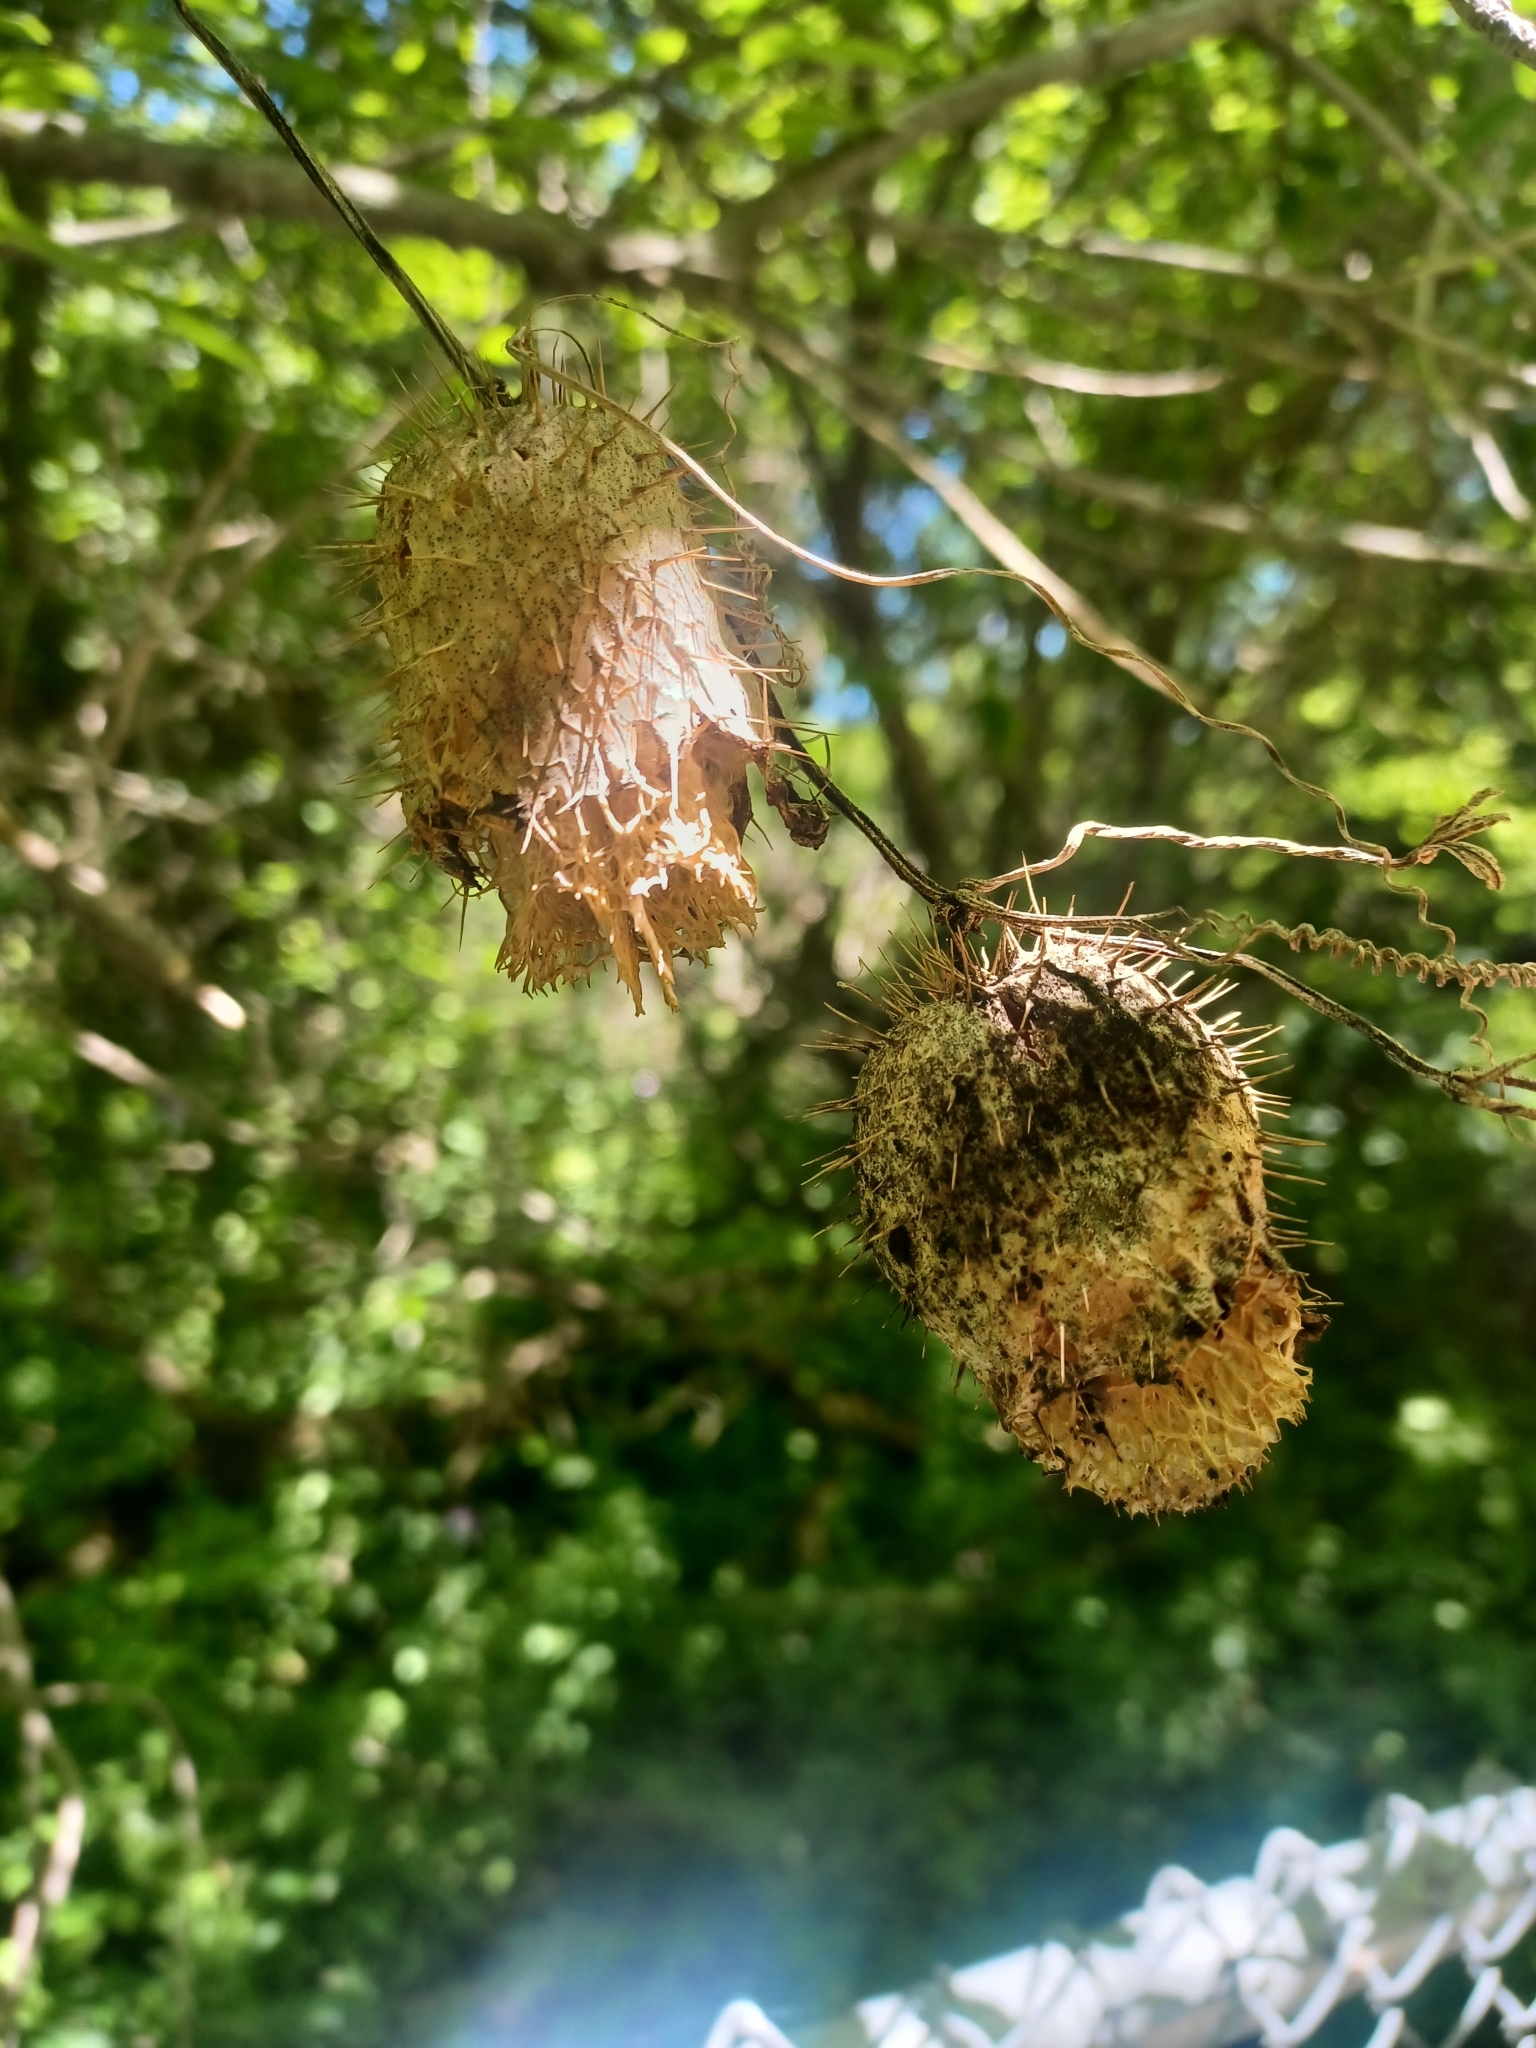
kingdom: Plantae
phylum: Tracheophyta
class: Magnoliopsida
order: Cucurbitales
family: Cucurbitaceae
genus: Echinocystis
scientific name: Echinocystis lobata
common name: Wild cucumber
